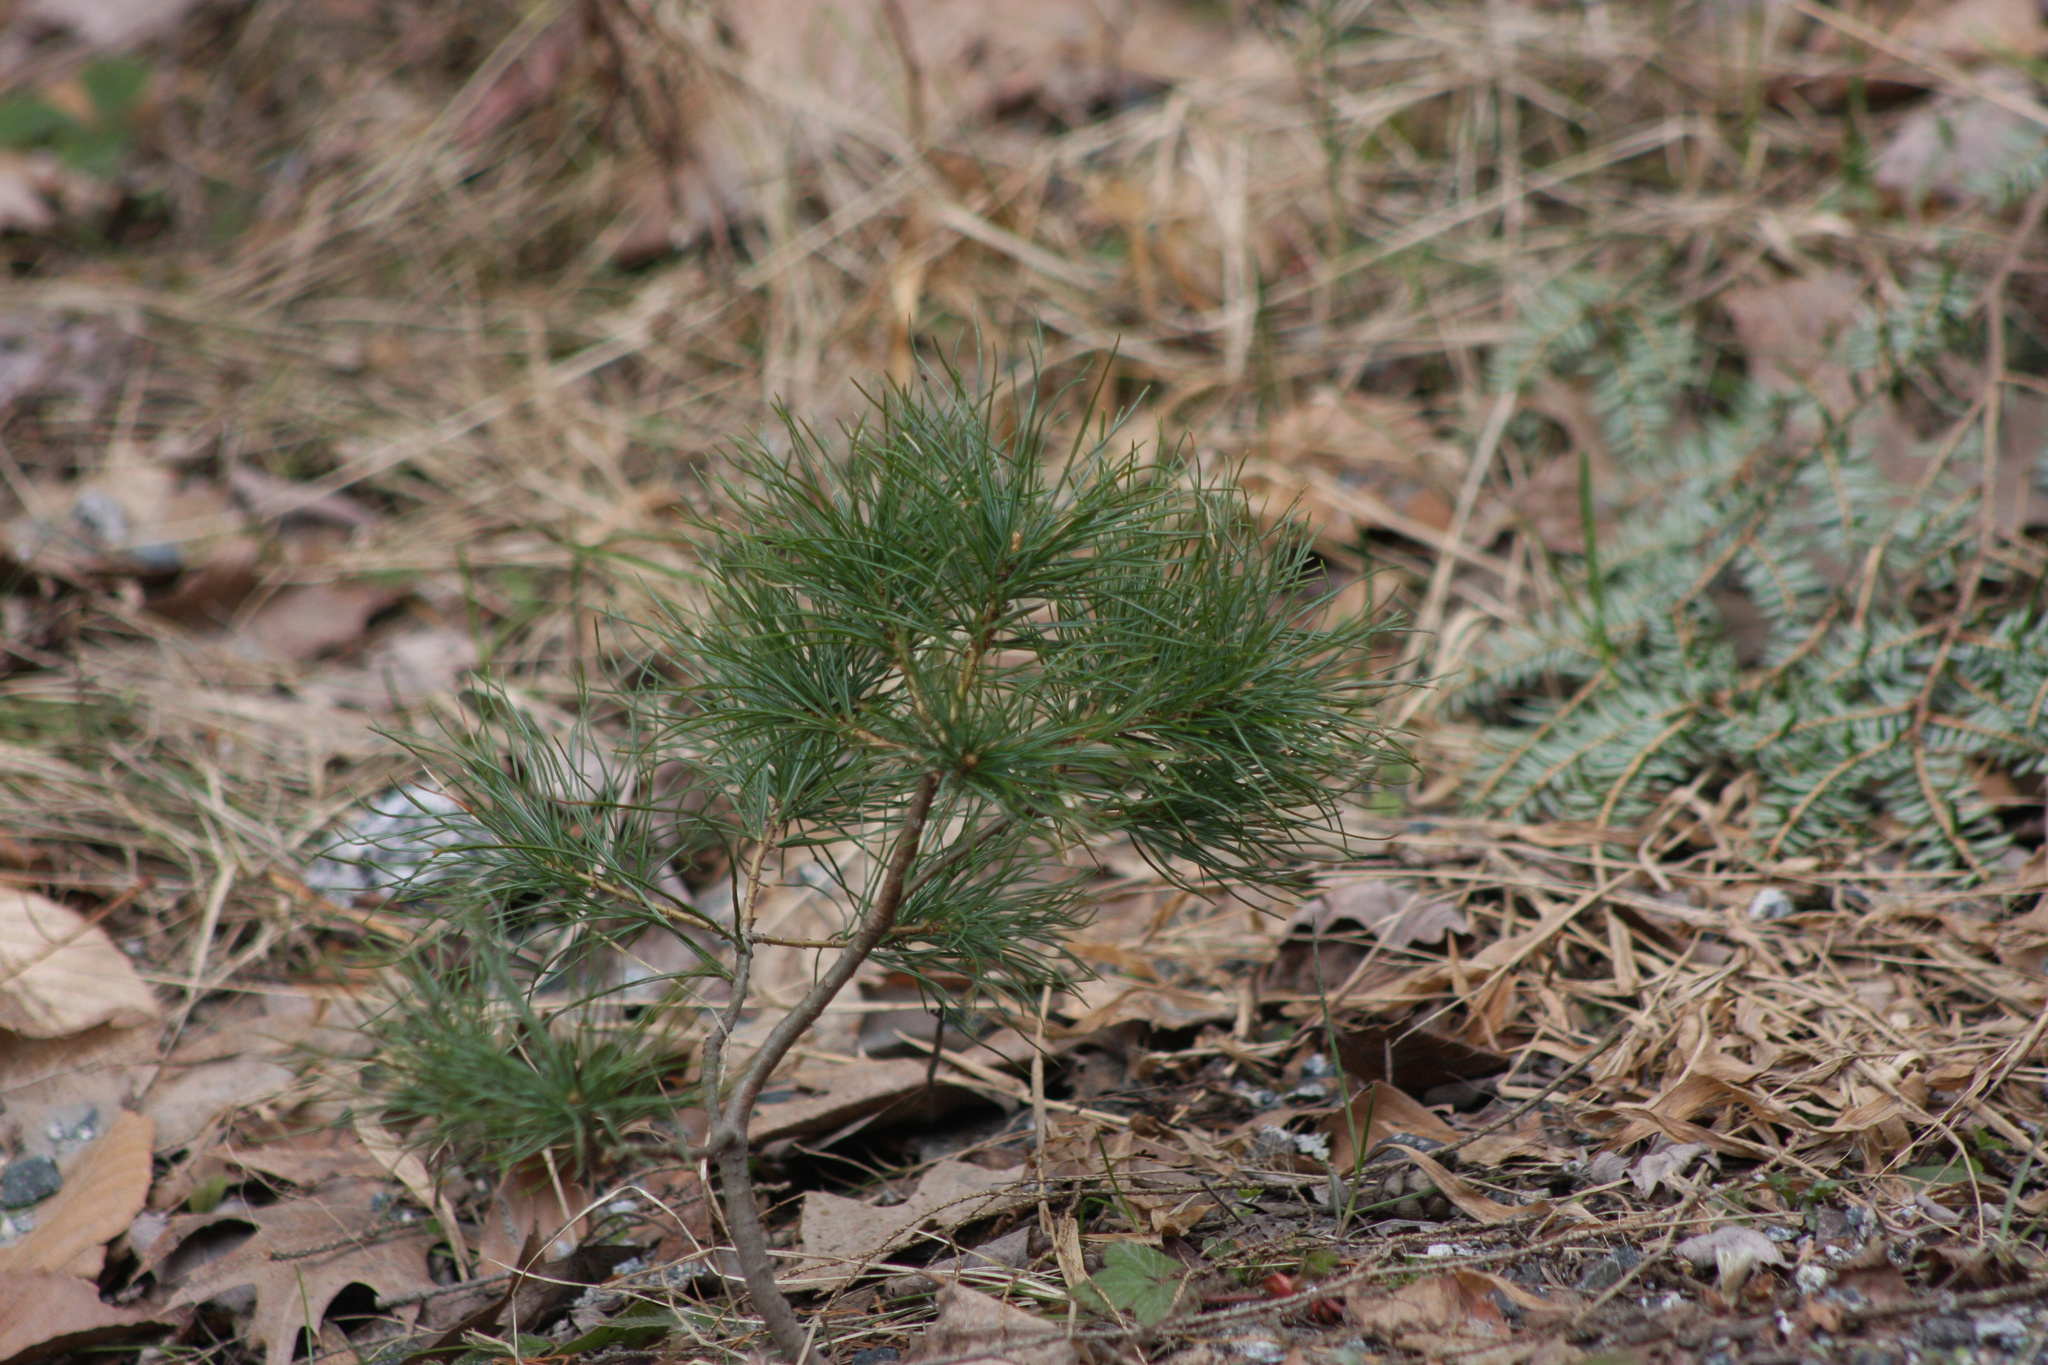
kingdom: Plantae
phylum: Tracheophyta
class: Pinopsida
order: Pinales
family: Pinaceae
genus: Pinus
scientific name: Pinus strobus
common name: Weymouth pine
